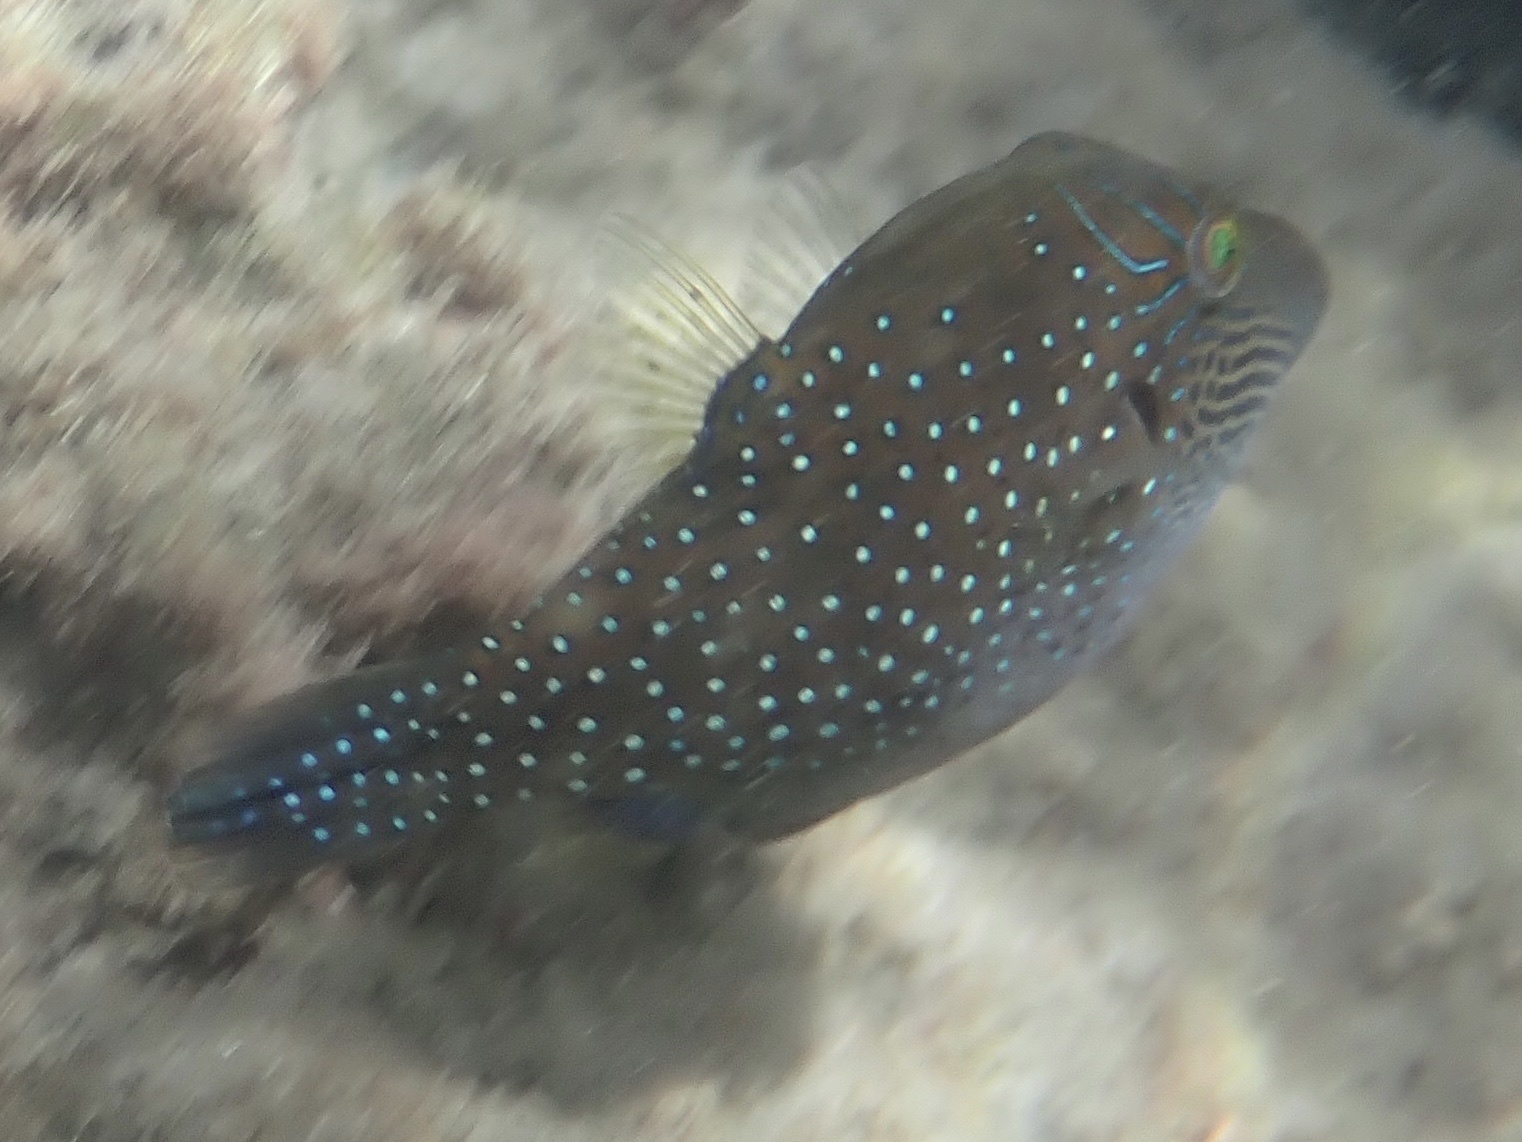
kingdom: Animalia
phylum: Chordata
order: Tetraodontiformes
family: Tetraodontidae
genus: Canthigaster
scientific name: Canthigaster amboinensis
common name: Ambon pufferfish
